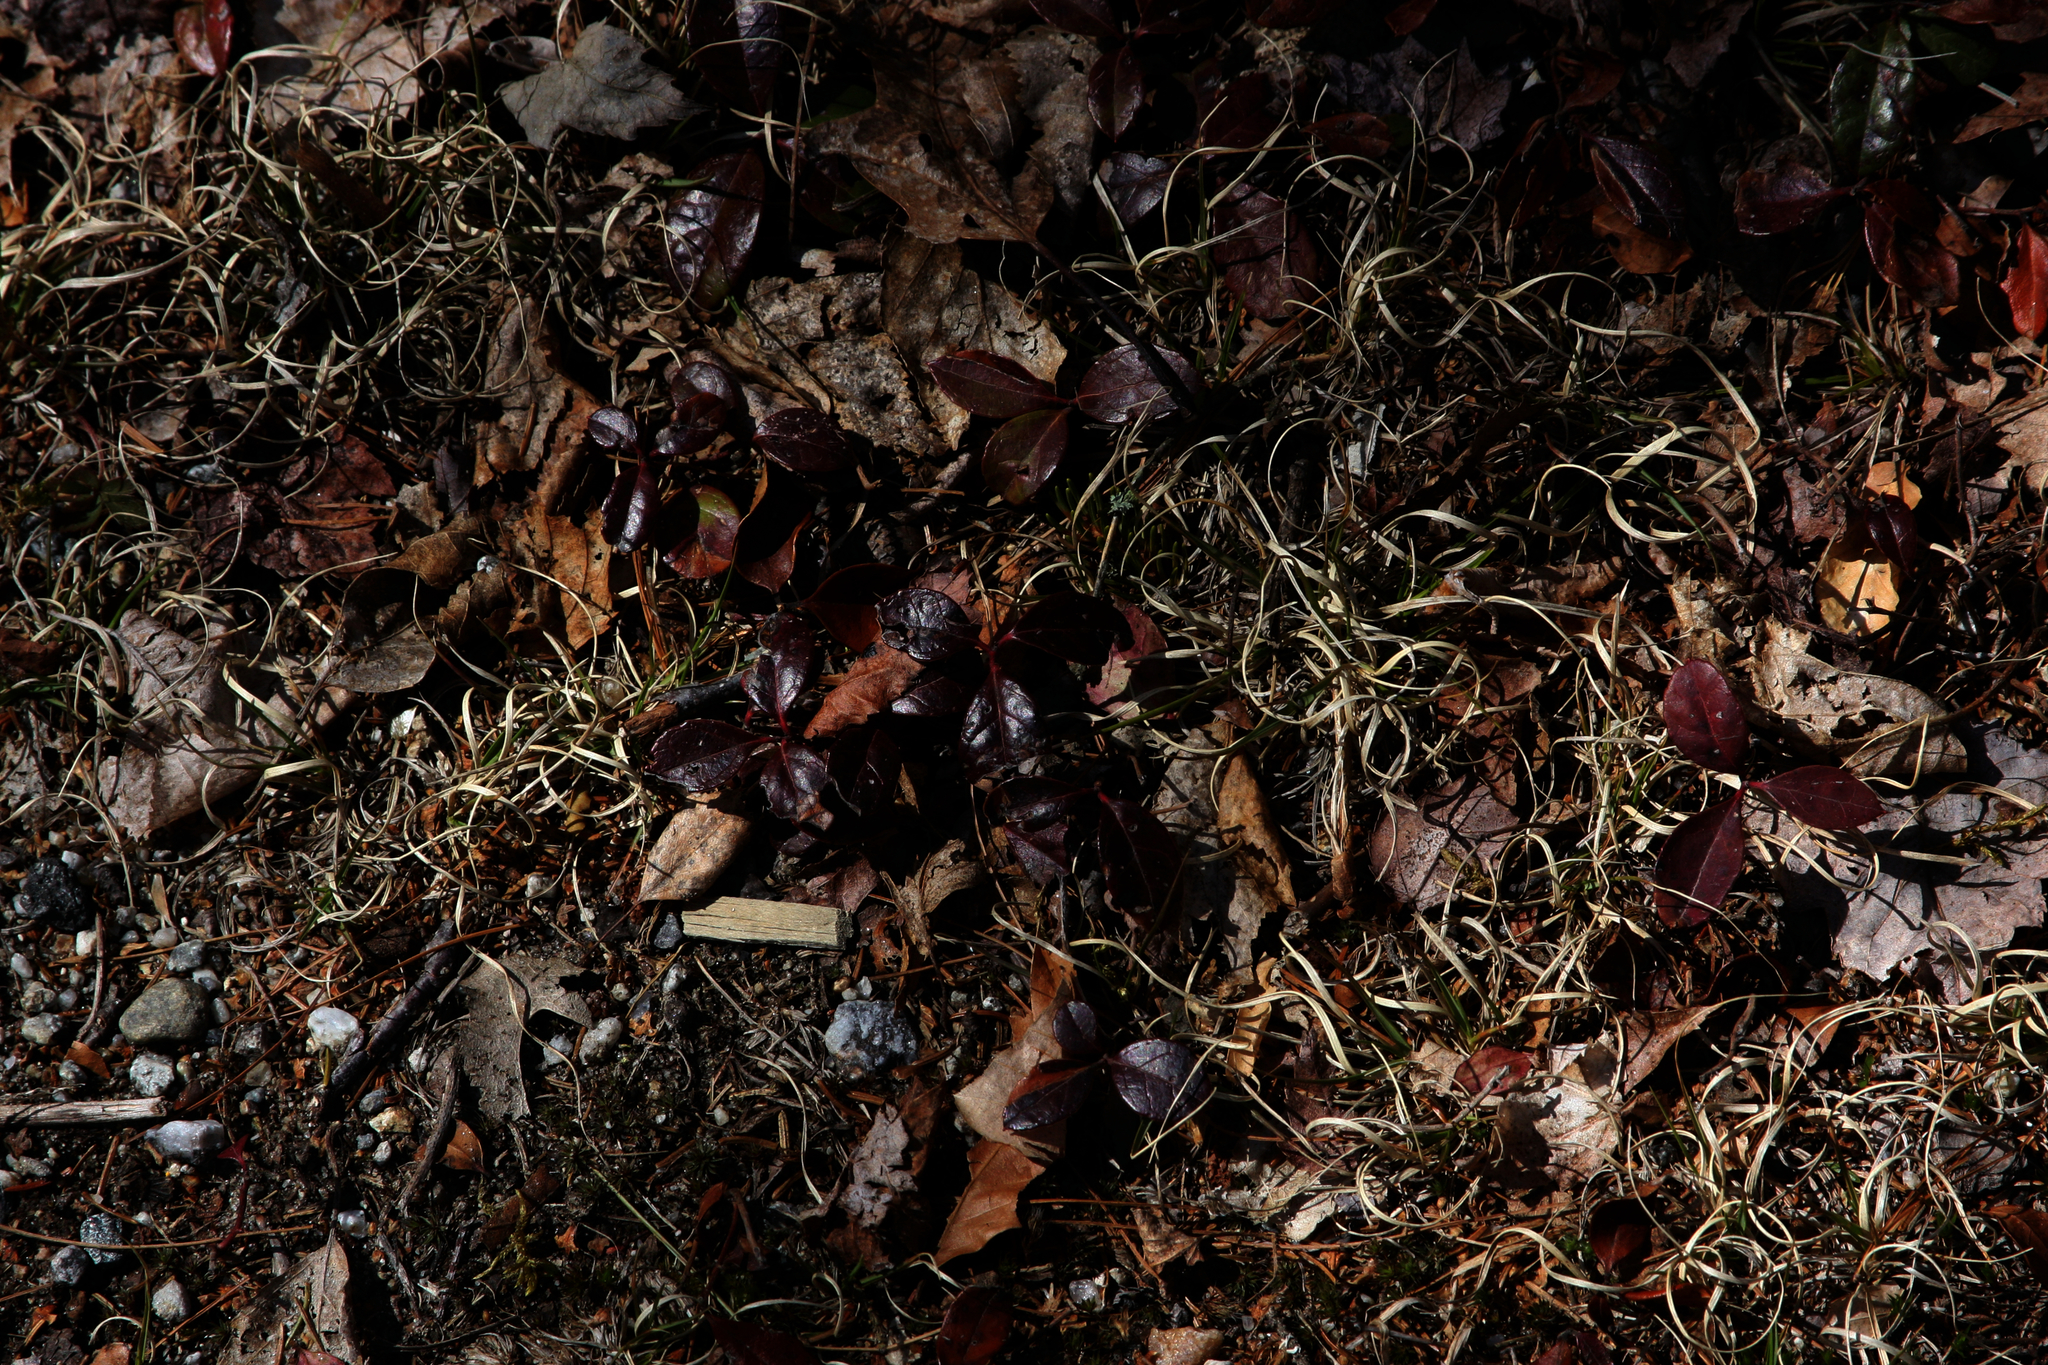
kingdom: Plantae
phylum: Tracheophyta
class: Magnoliopsida
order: Ericales
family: Ericaceae
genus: Gaultheria
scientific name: Gaultheria procumbens
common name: Checkerberry
